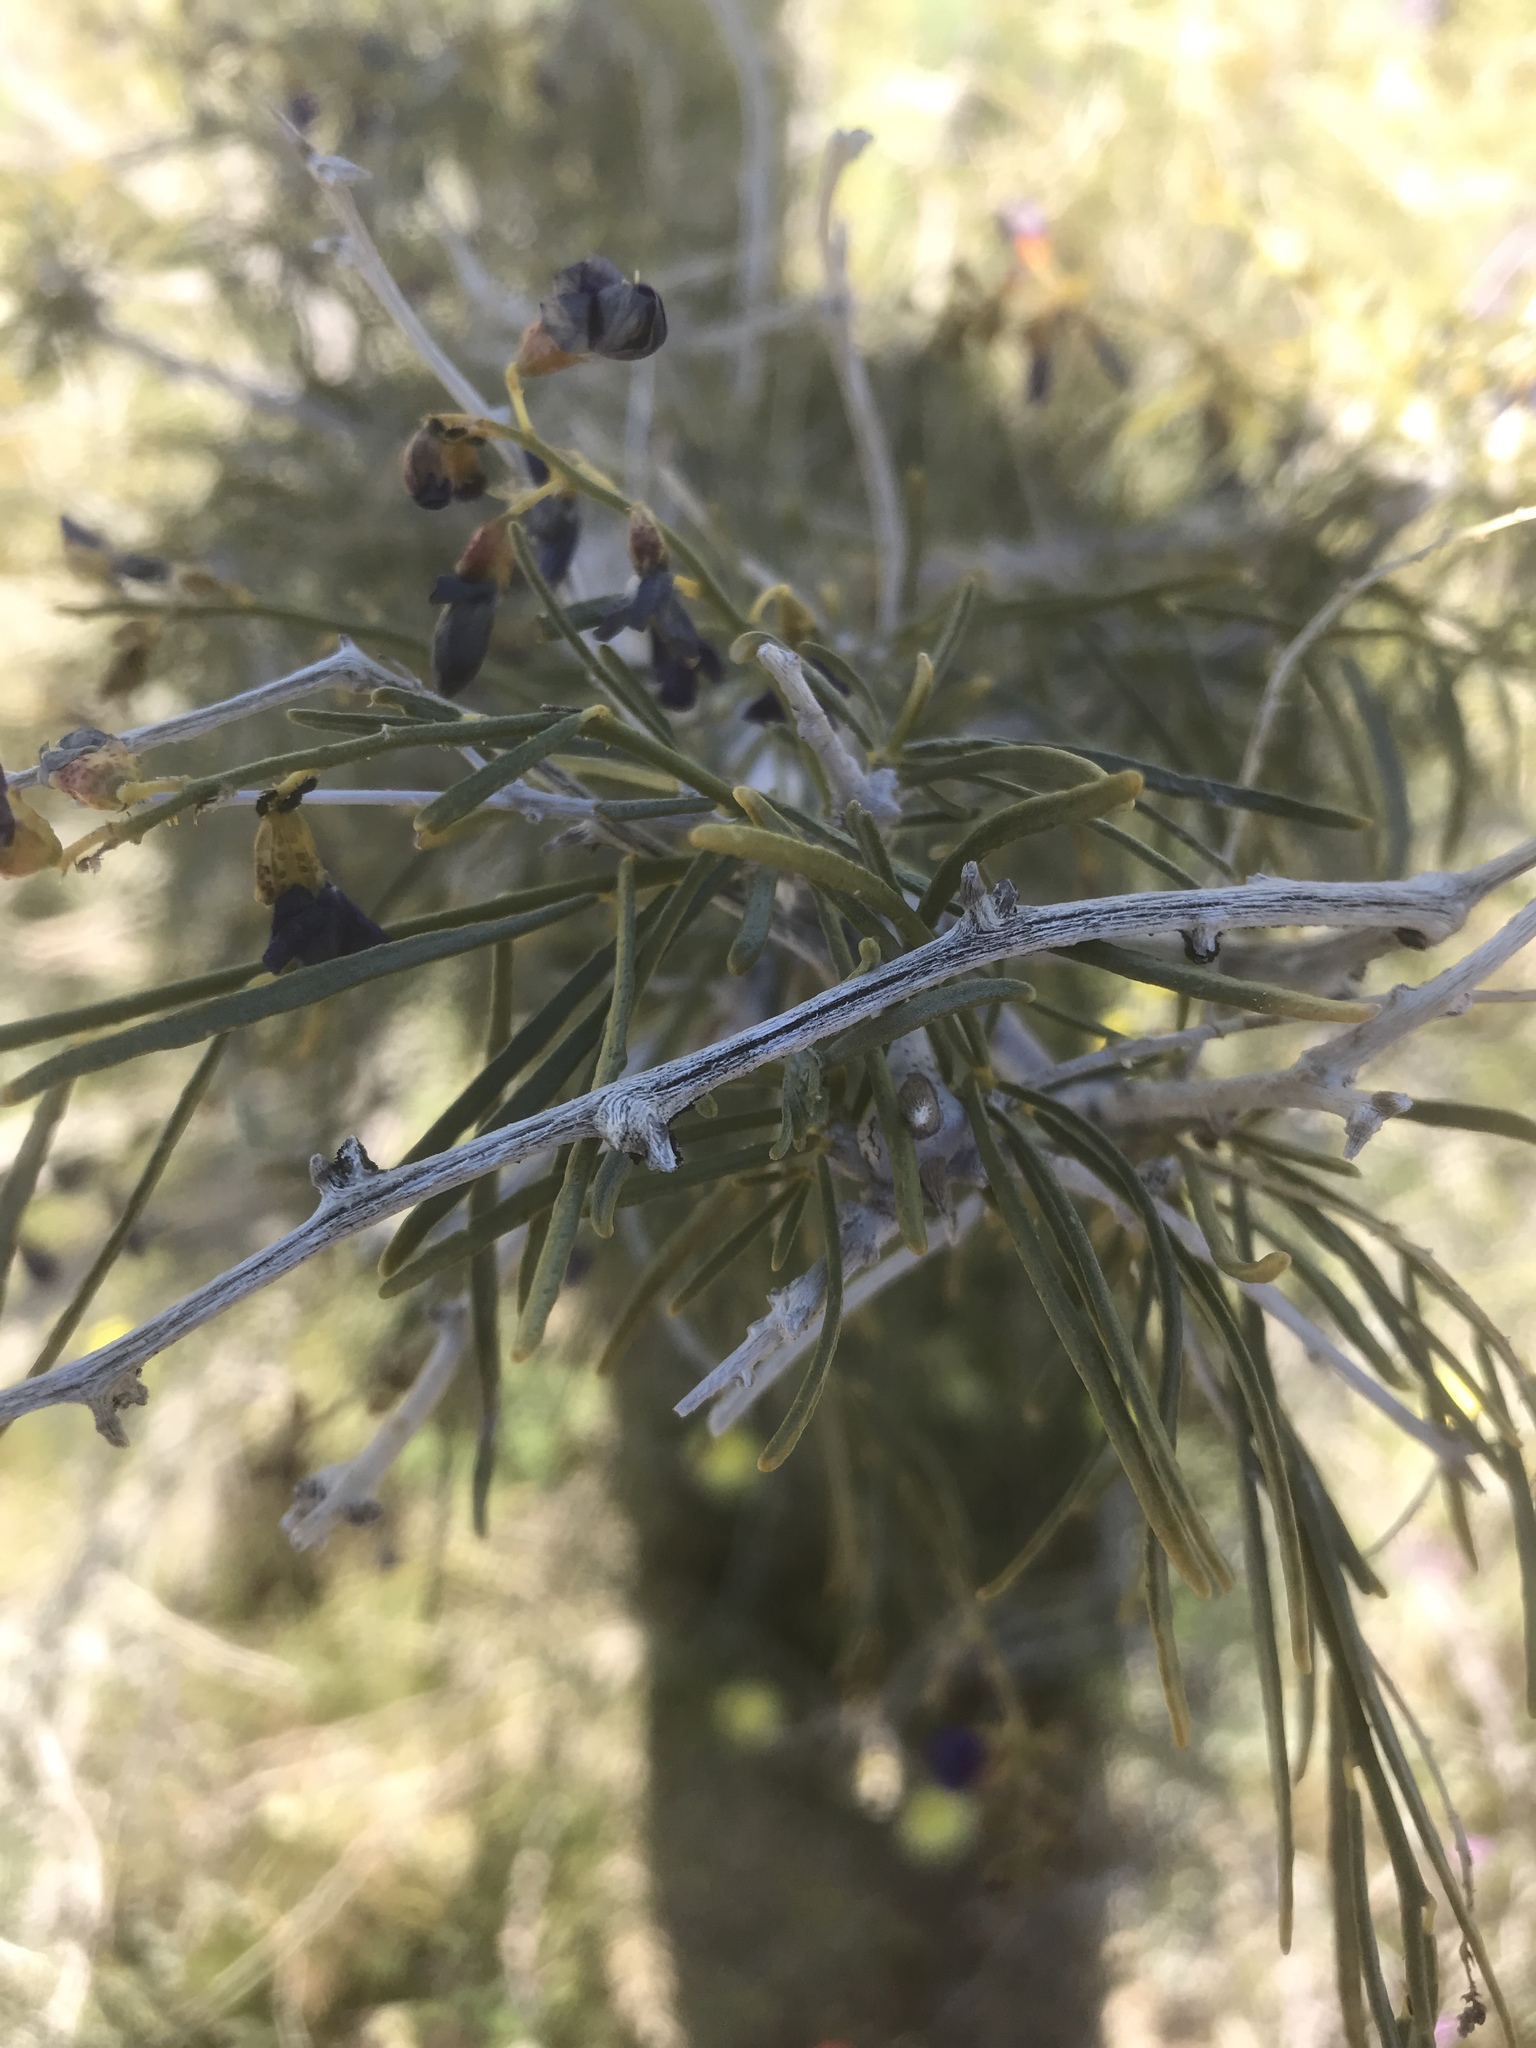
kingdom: Plantae
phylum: Tracheophyta
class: Magnoliopsida
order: Fabales
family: Fabaceae
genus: Psorothamnus
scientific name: Psorothamnus schottii
